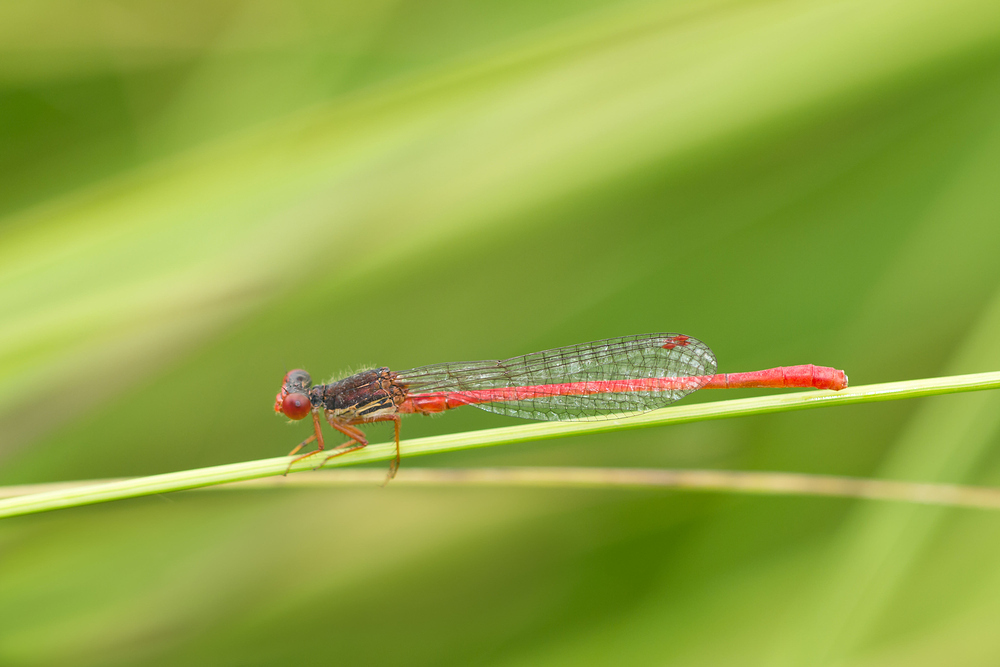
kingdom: Animalia
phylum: Arthropoda
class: Insecta
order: Odonata
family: Coenagrionidae
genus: Ceriagrion
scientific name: Ceriagrion tenellum
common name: Small red damselfly
